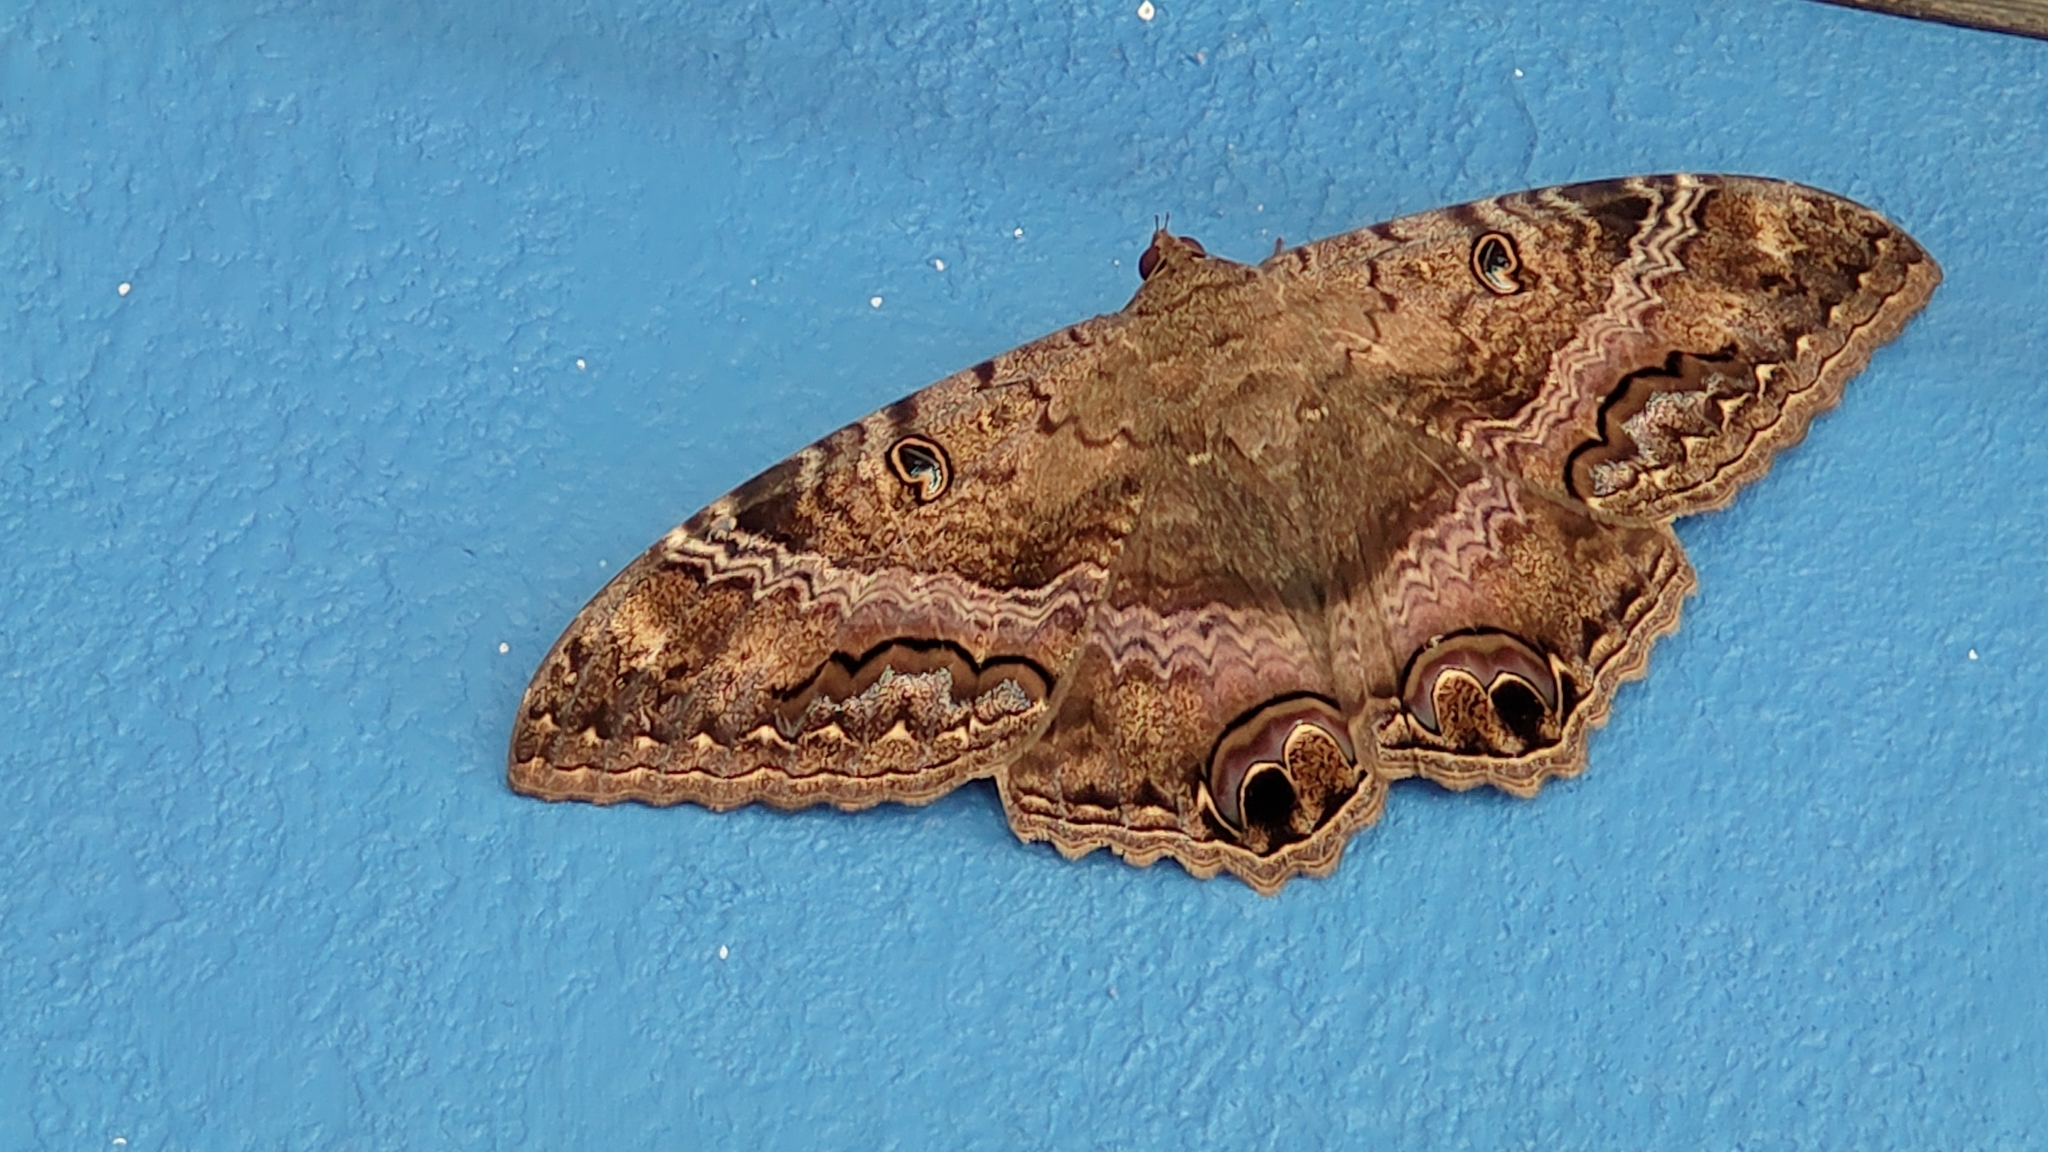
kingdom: Animalia
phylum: Arthropoda
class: Insecta
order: Lepidoptera
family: Erebidae
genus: Ascalapha
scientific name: Ascalapha odorata
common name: Black witch
